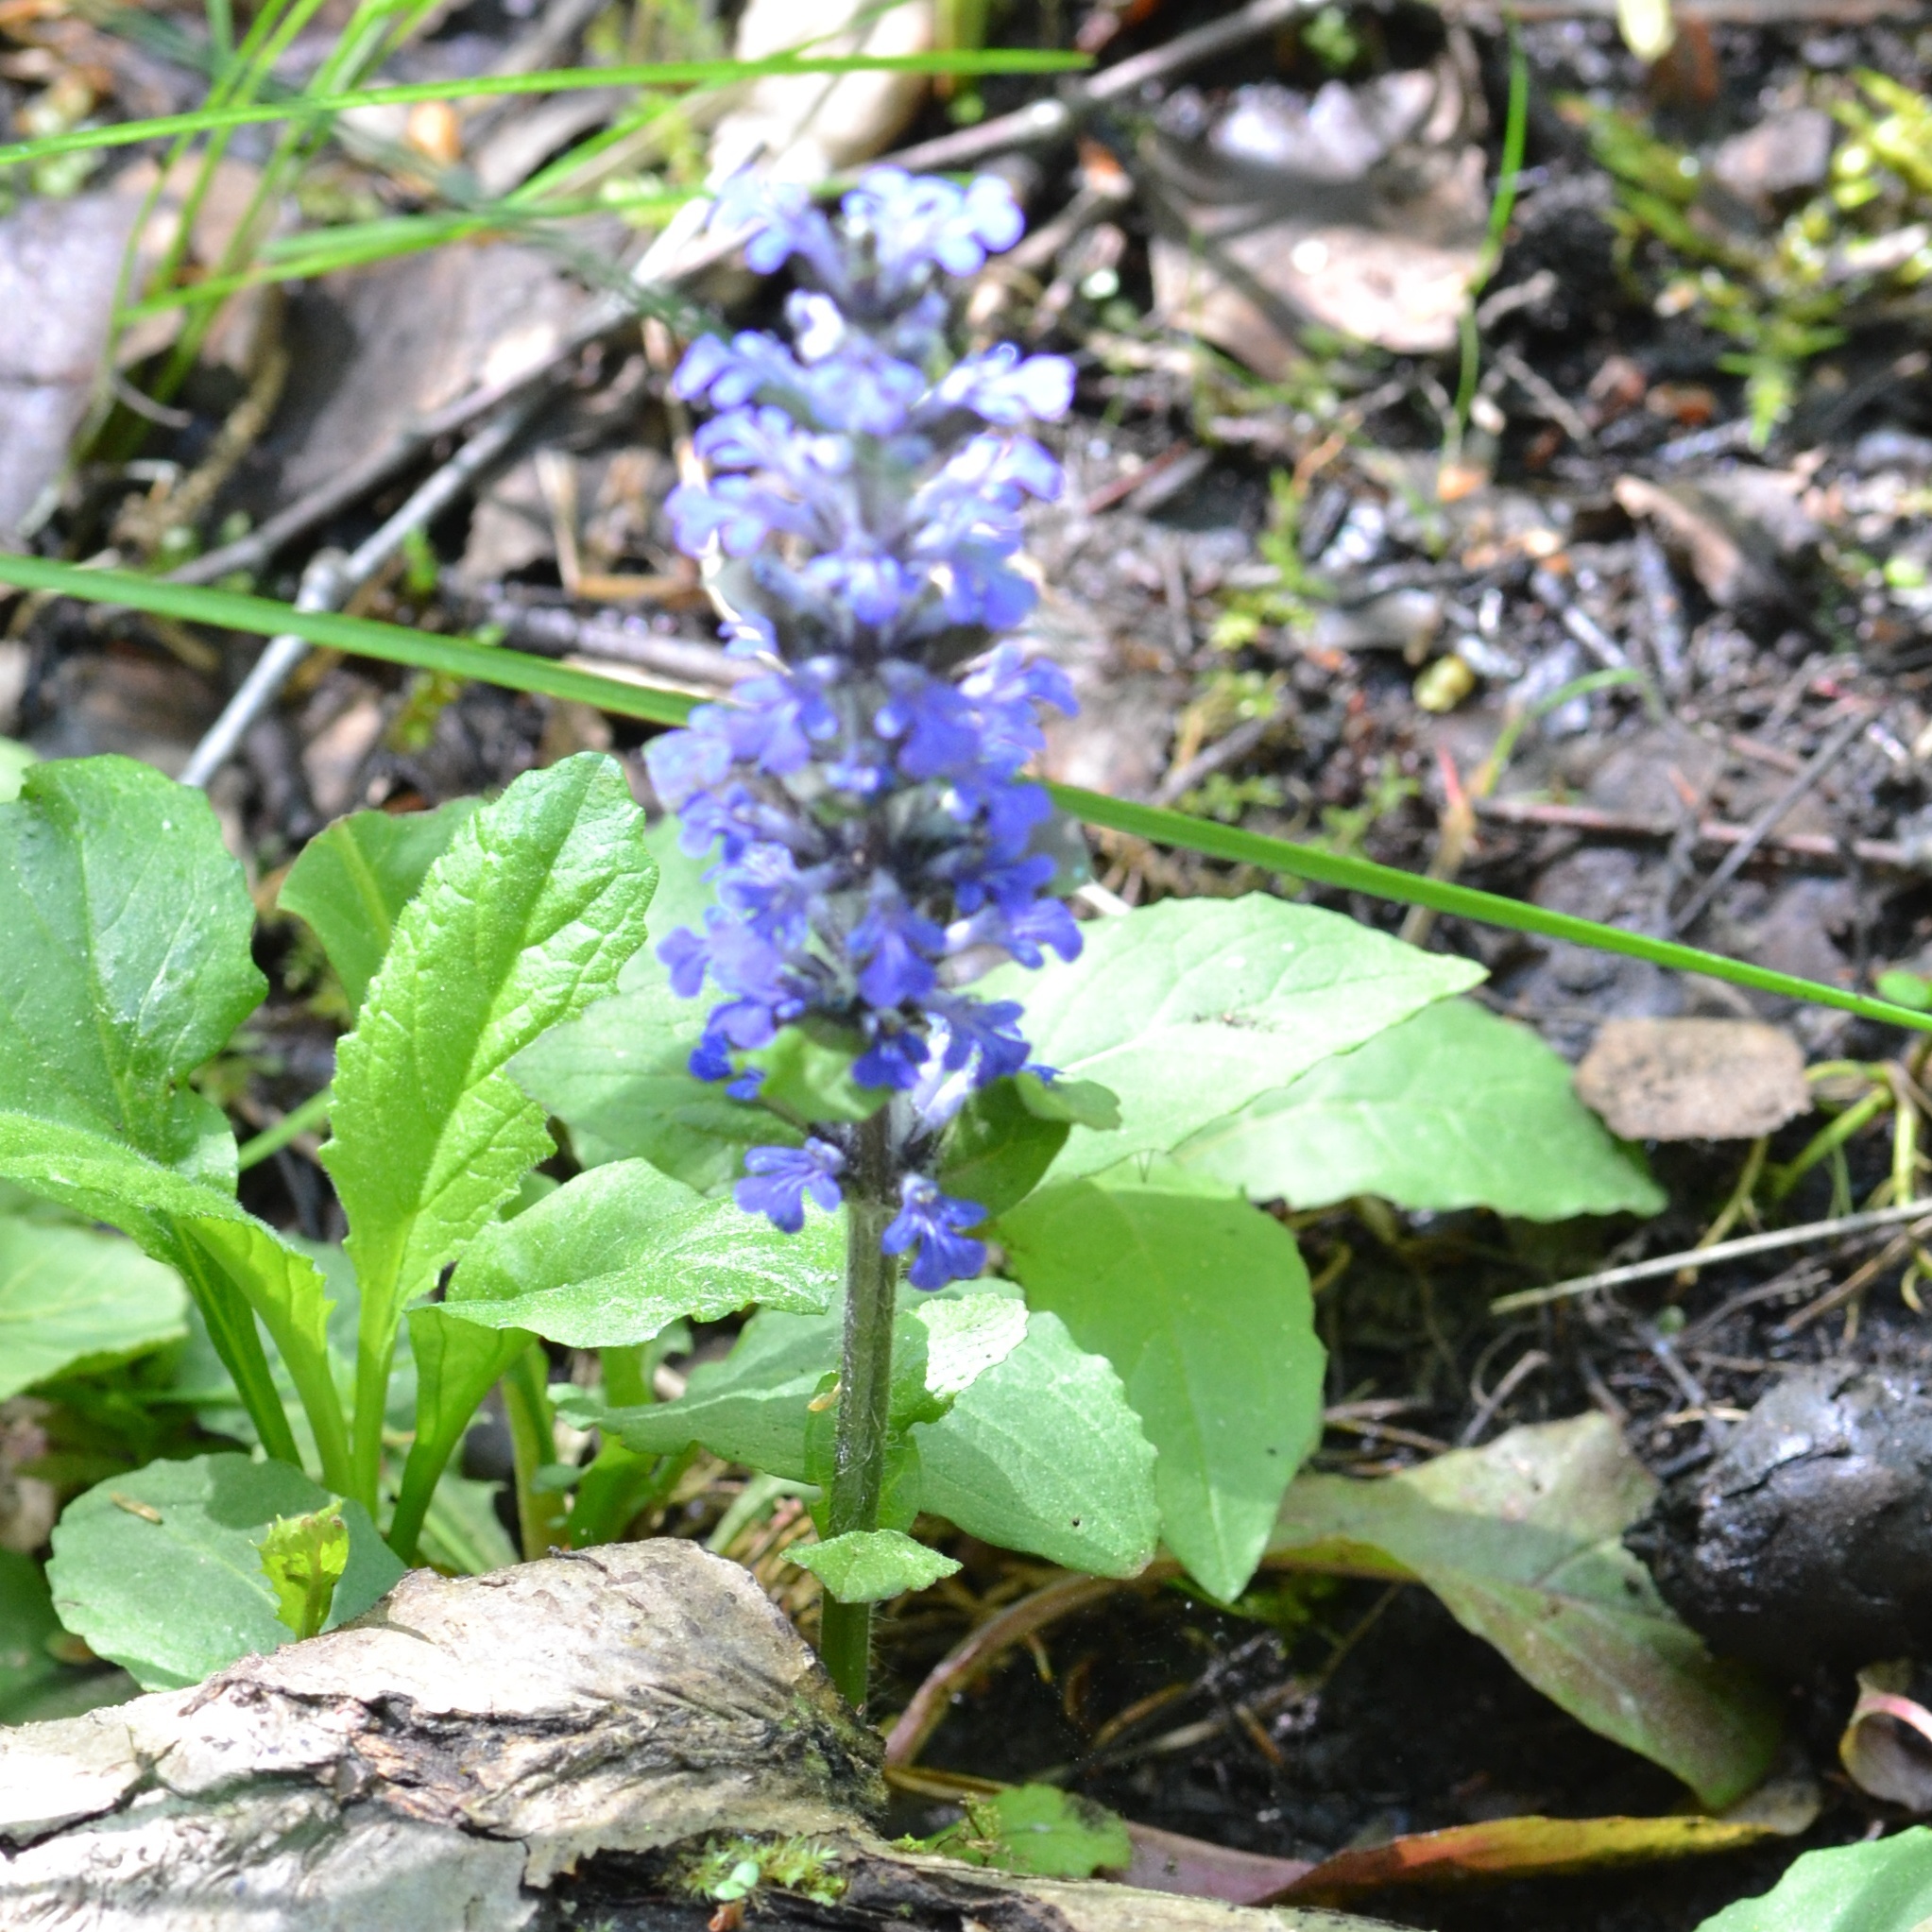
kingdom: Plantae
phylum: Tracheophyta
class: Magnoliopsida
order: Lamiales
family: Lamiaceae
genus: Ajuga
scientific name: Ajuga reptans
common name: Bugle
